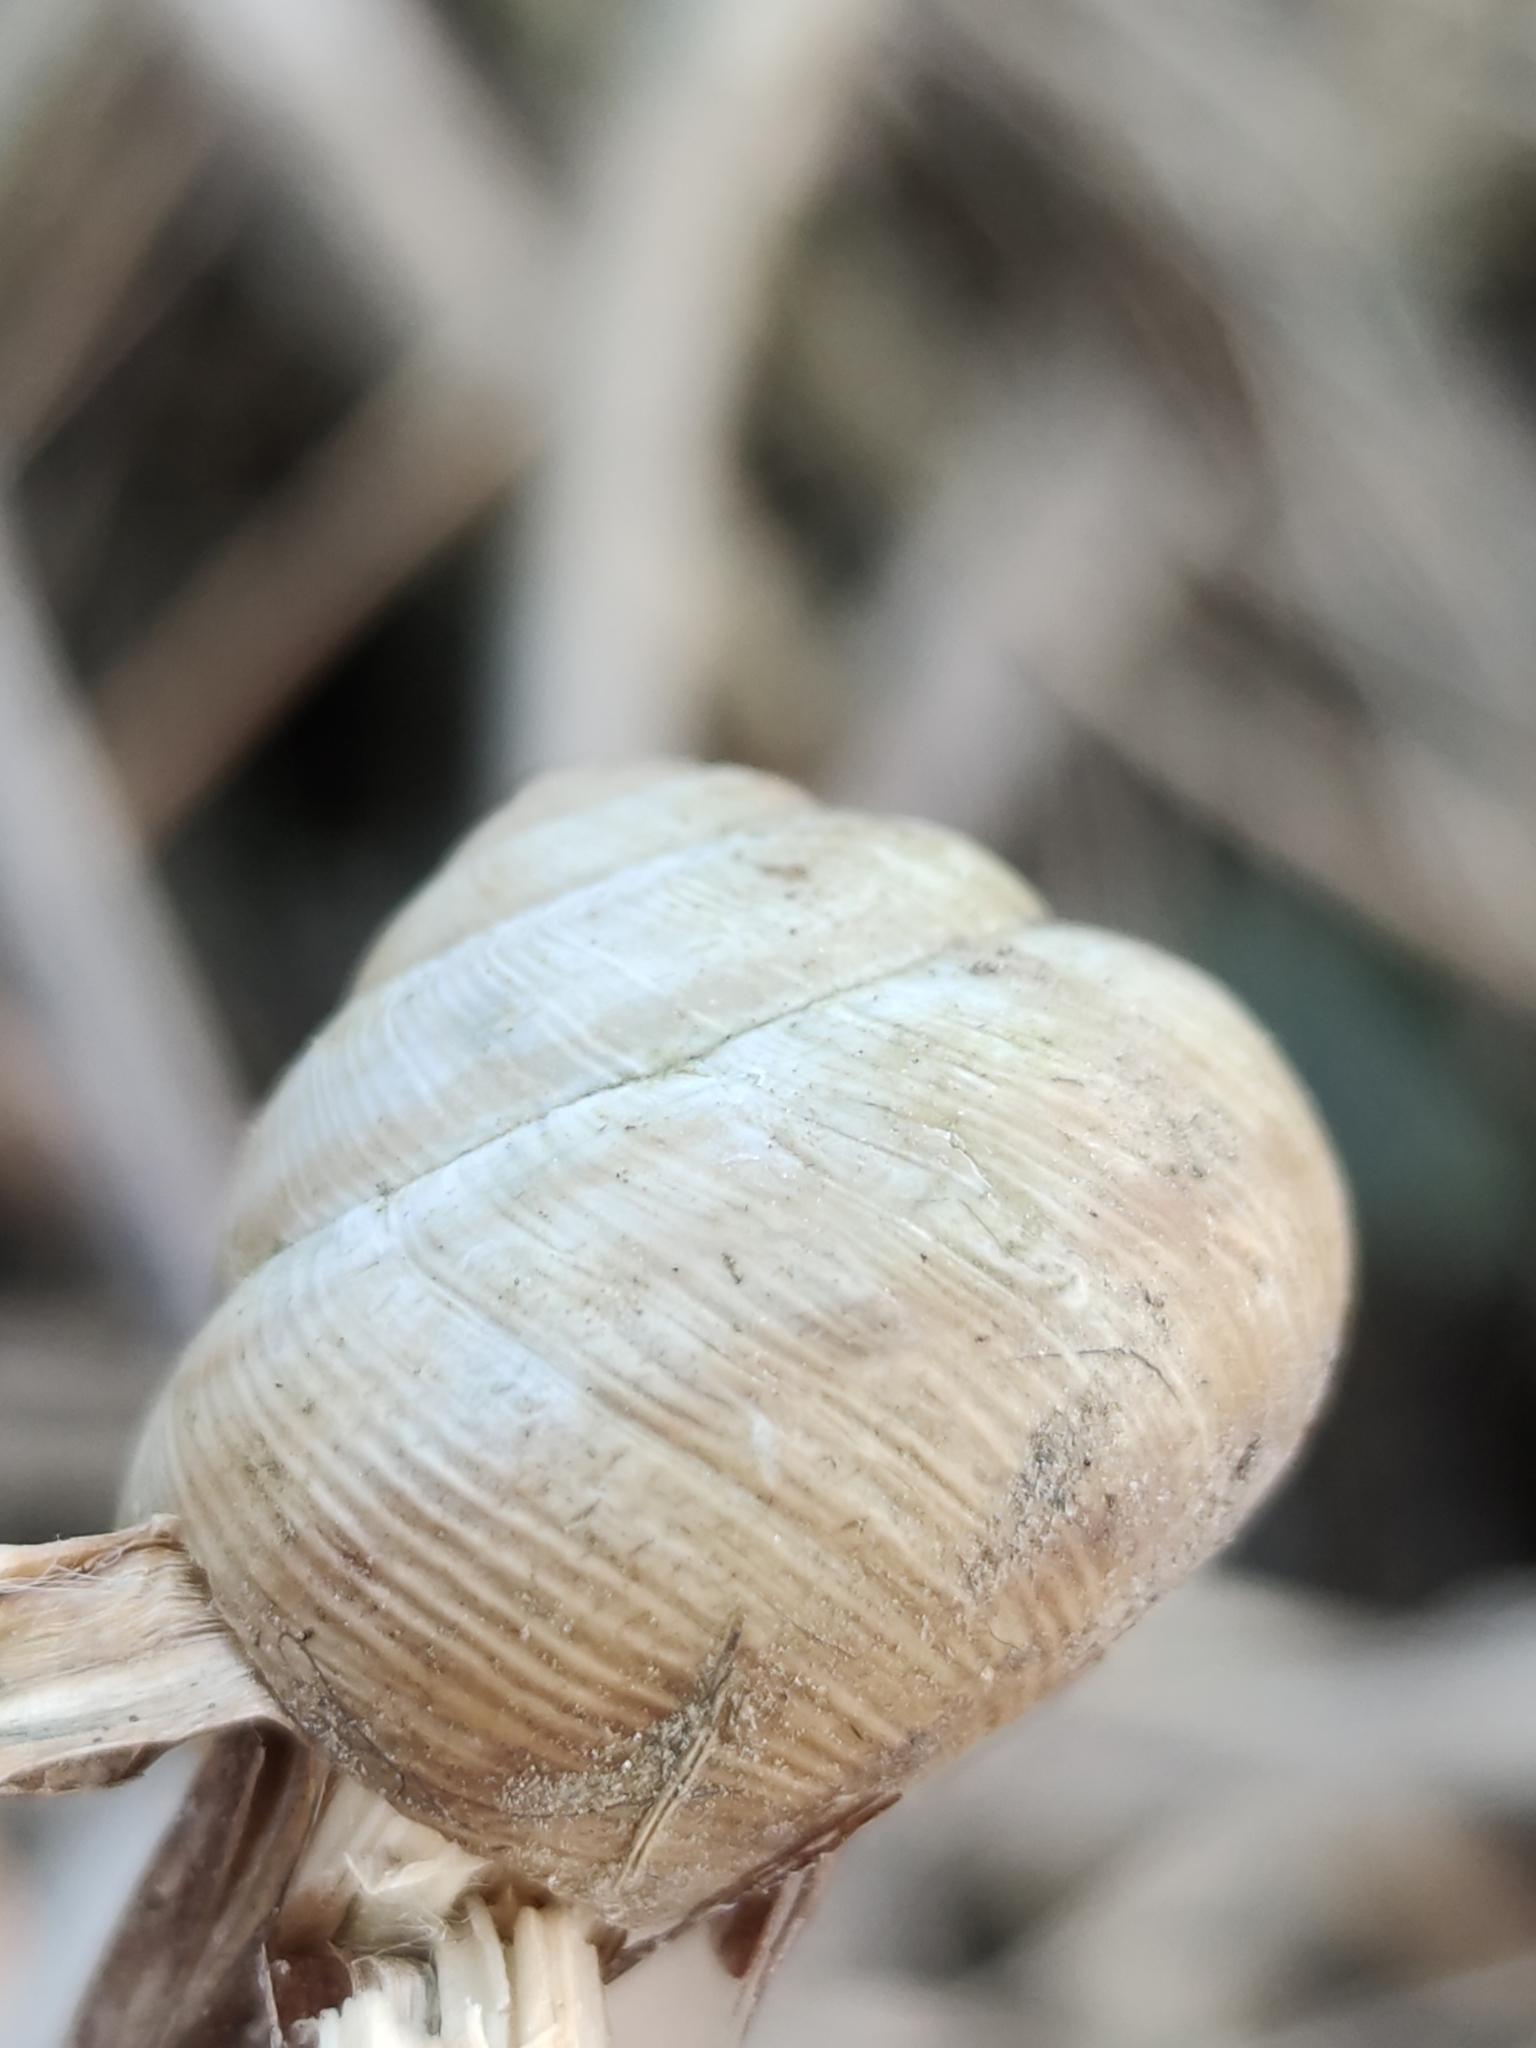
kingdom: Animalia
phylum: Mollusca
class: Gastropoda
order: Stylommatophora
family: Helicidae
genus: Caucasotachea
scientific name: Caucasotachea vindobonensis
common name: European helicid land snail
